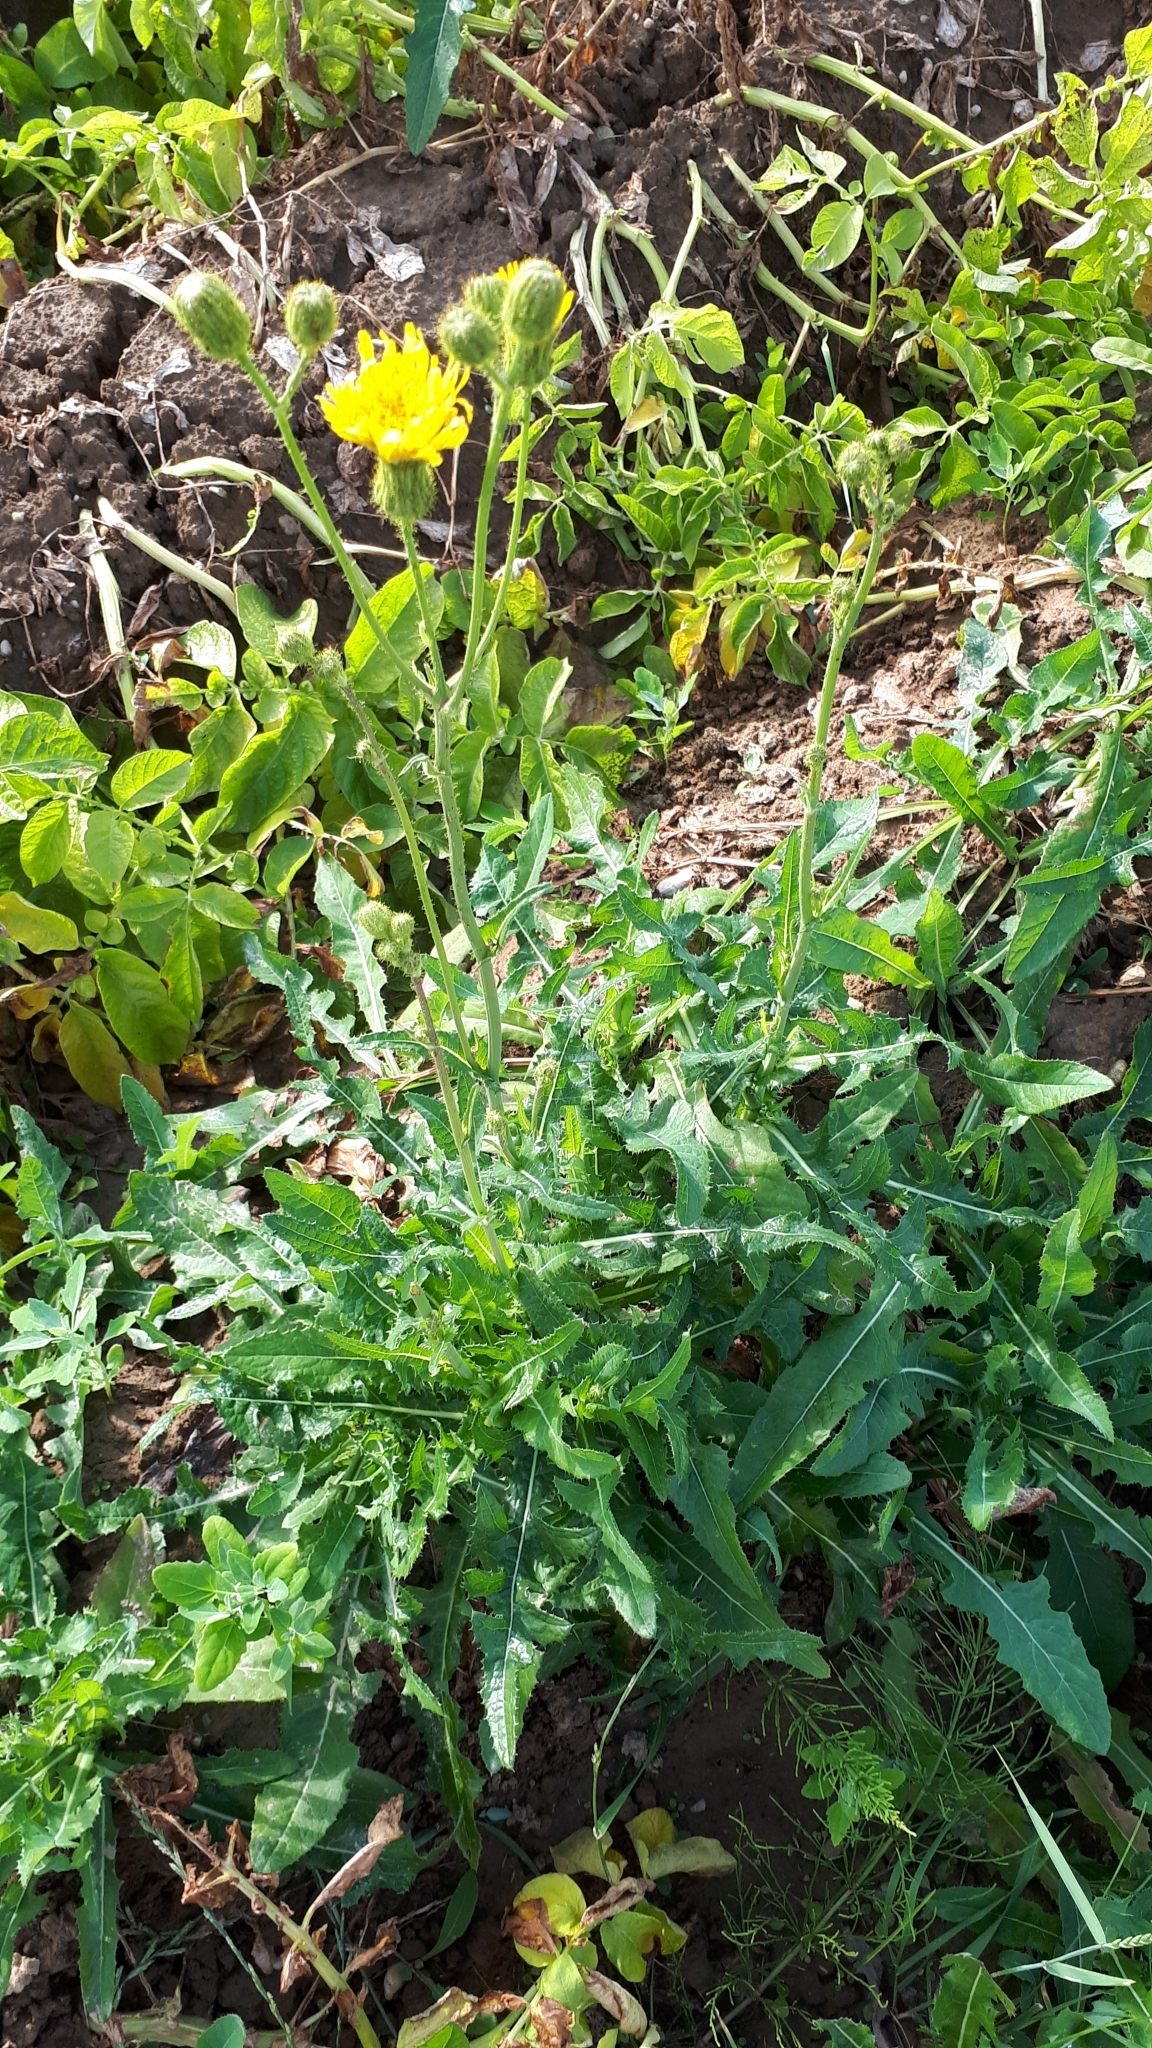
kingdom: Plantae
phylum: Tracheophyta
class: Magnoliopsida
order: Asterales
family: Asteraceae
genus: Sonchus
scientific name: Sonchus arvensis
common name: Perennial sow-thistle
